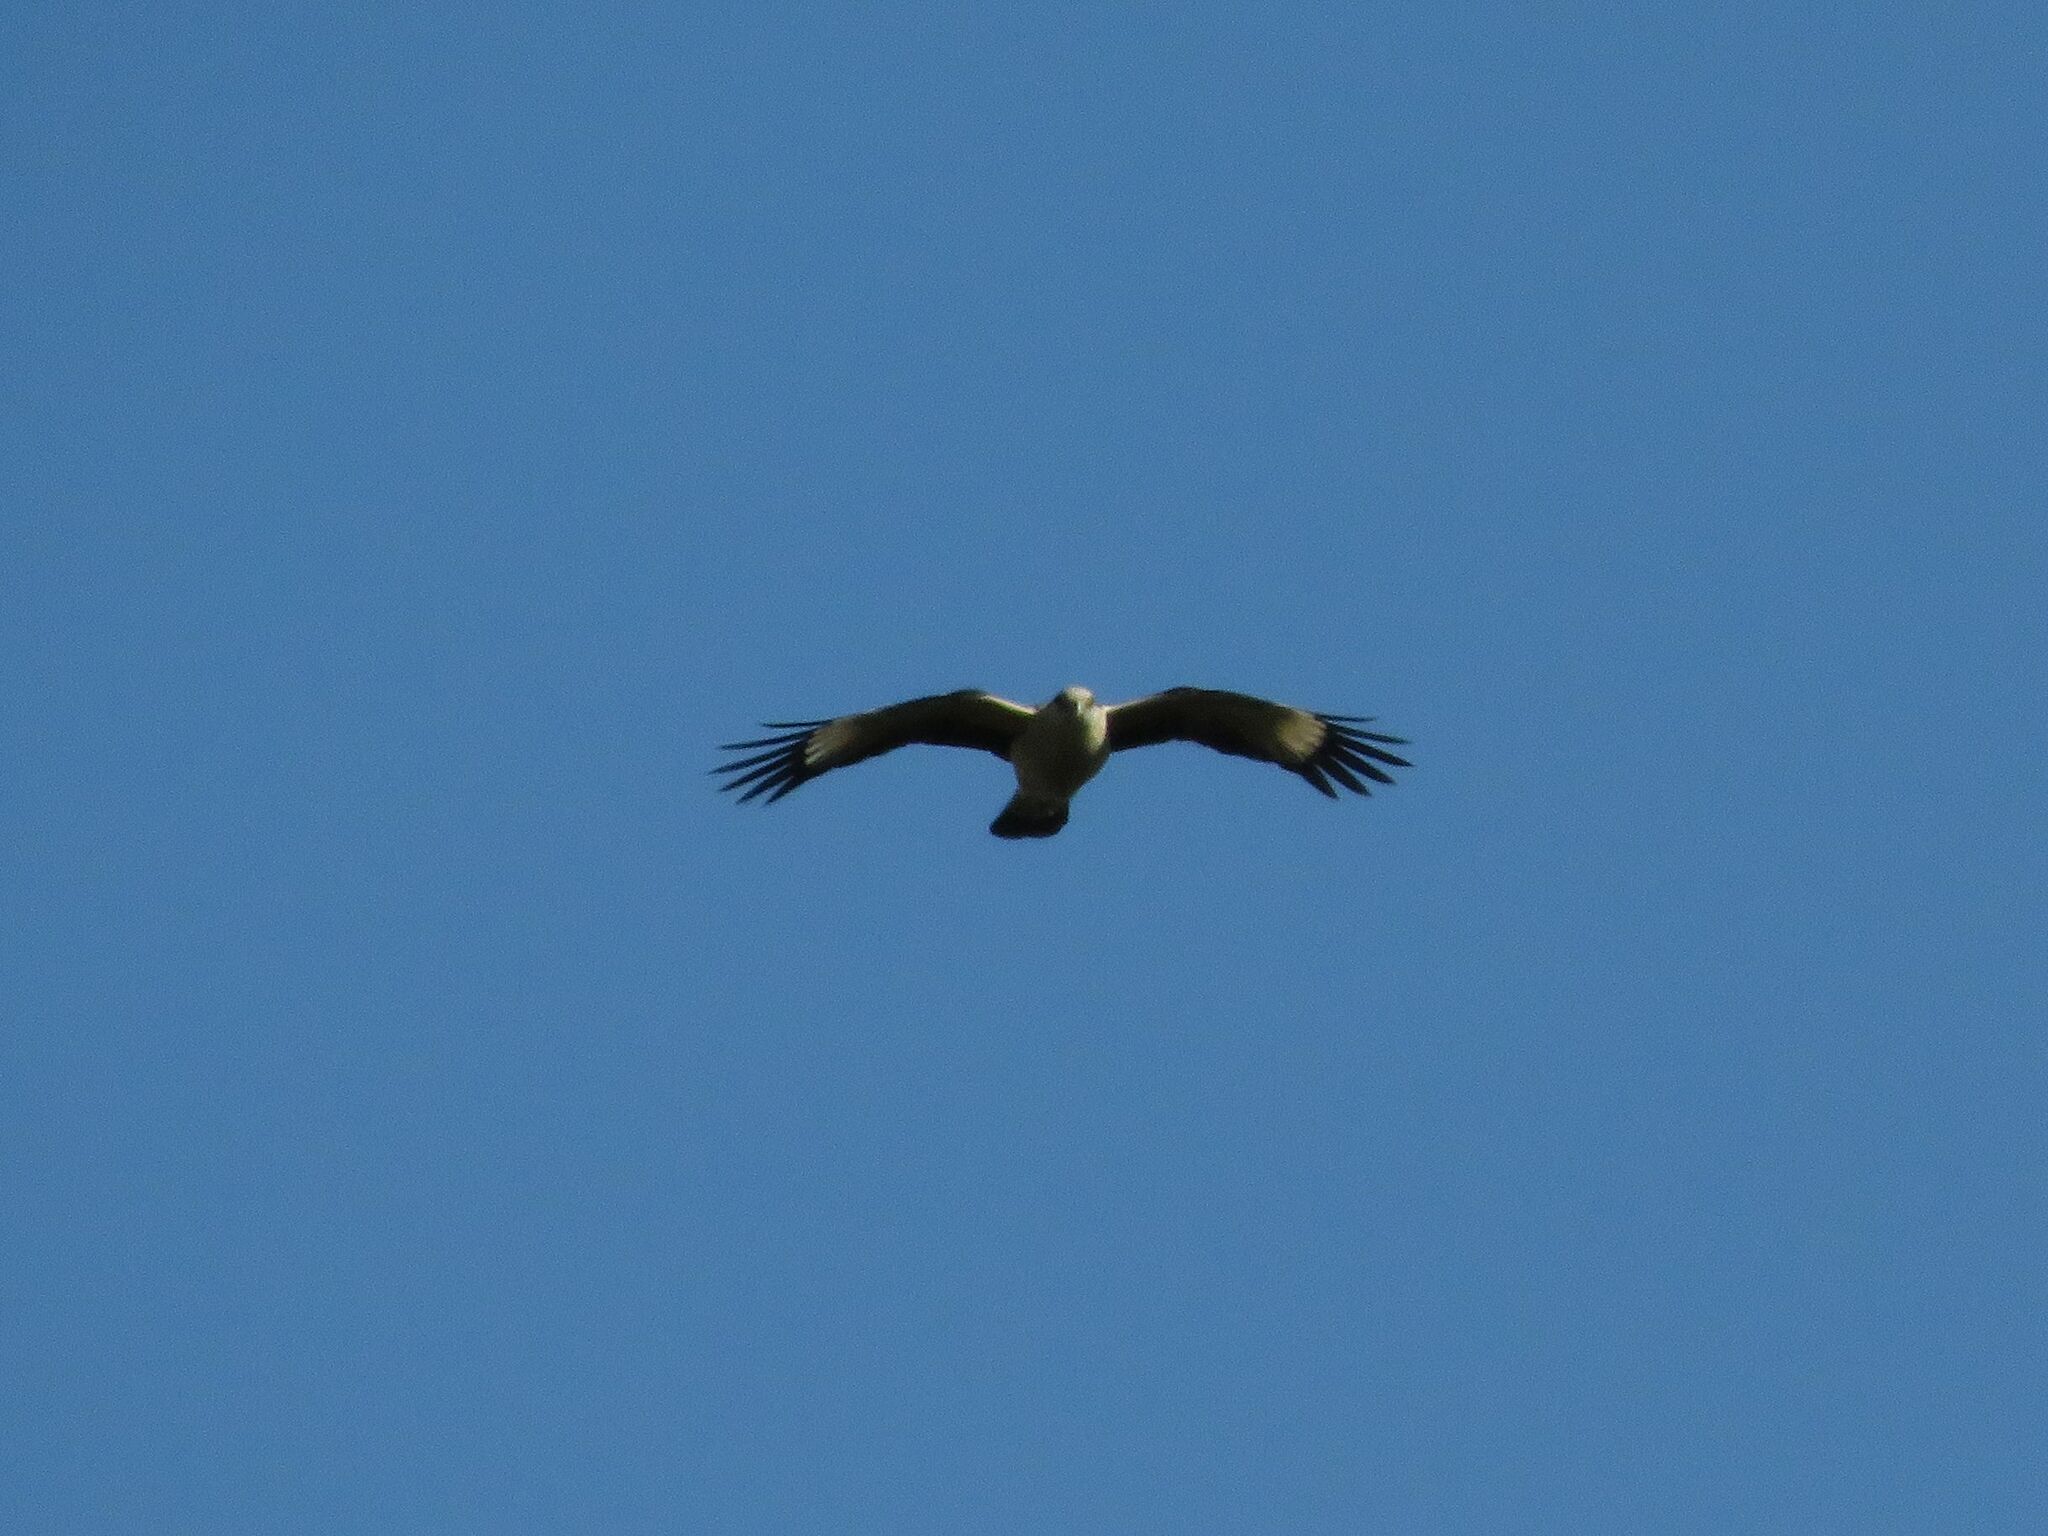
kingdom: Animalia
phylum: Chordata
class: Aves
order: Falconiformes
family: Falconidae
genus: Daptrius
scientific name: Daptrius
